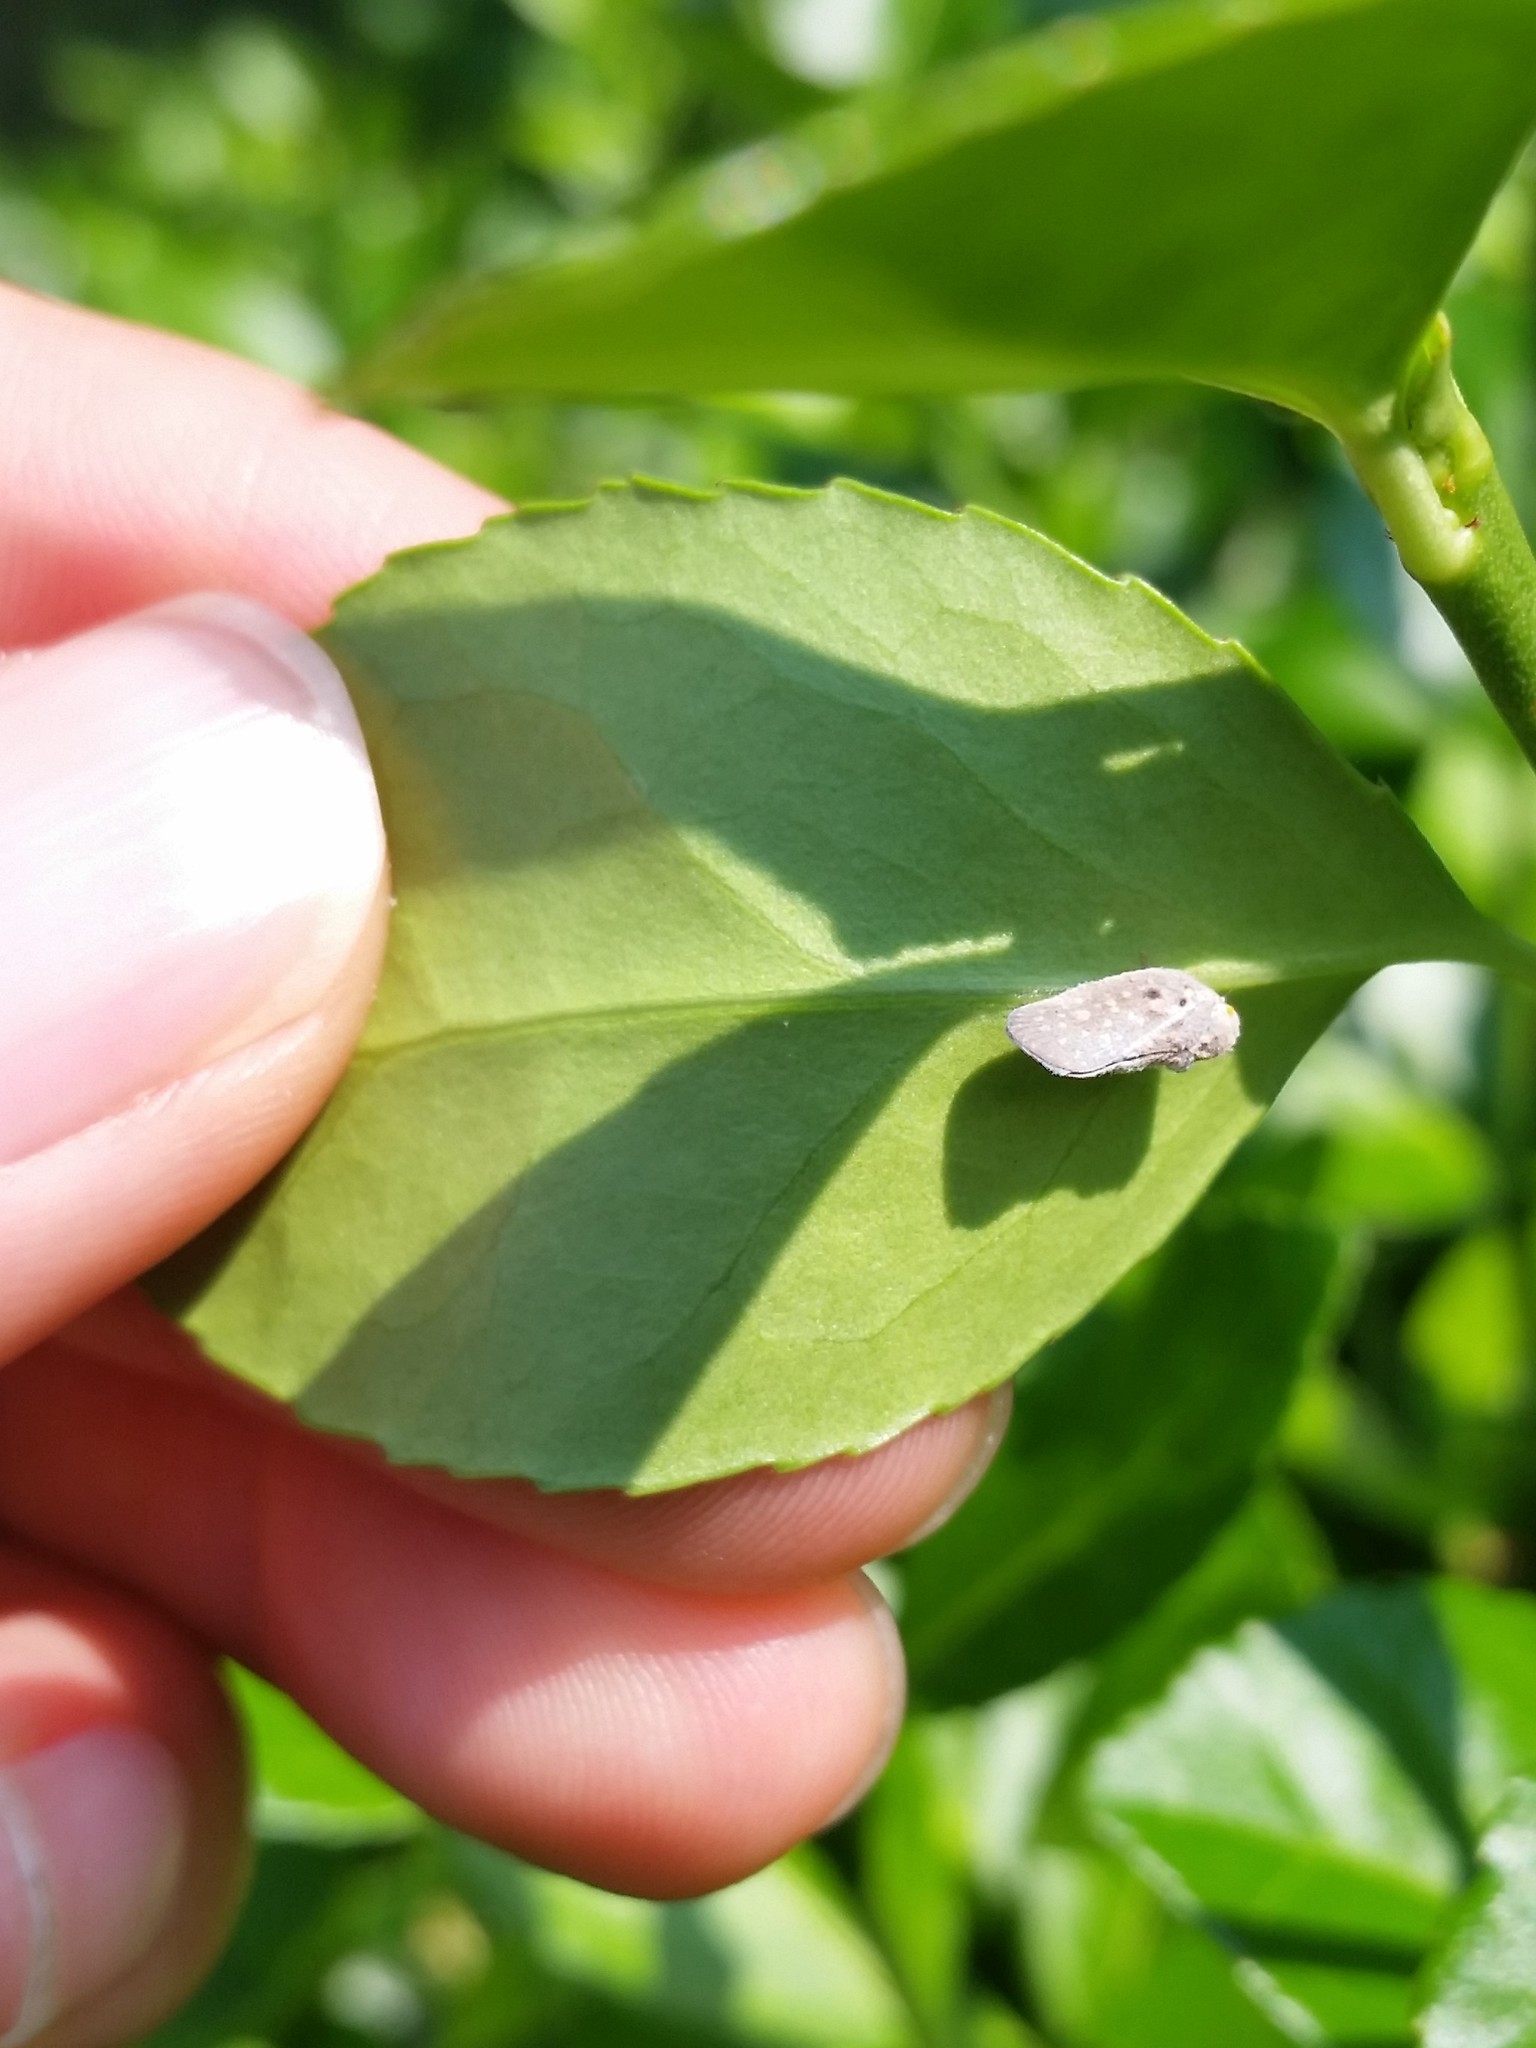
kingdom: Animalia
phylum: Arthropoda
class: Insecta
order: Hemiptera
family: Flatidae
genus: Metcalfa
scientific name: Metcalfa pruinosa
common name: Citrus flatid planthopper
